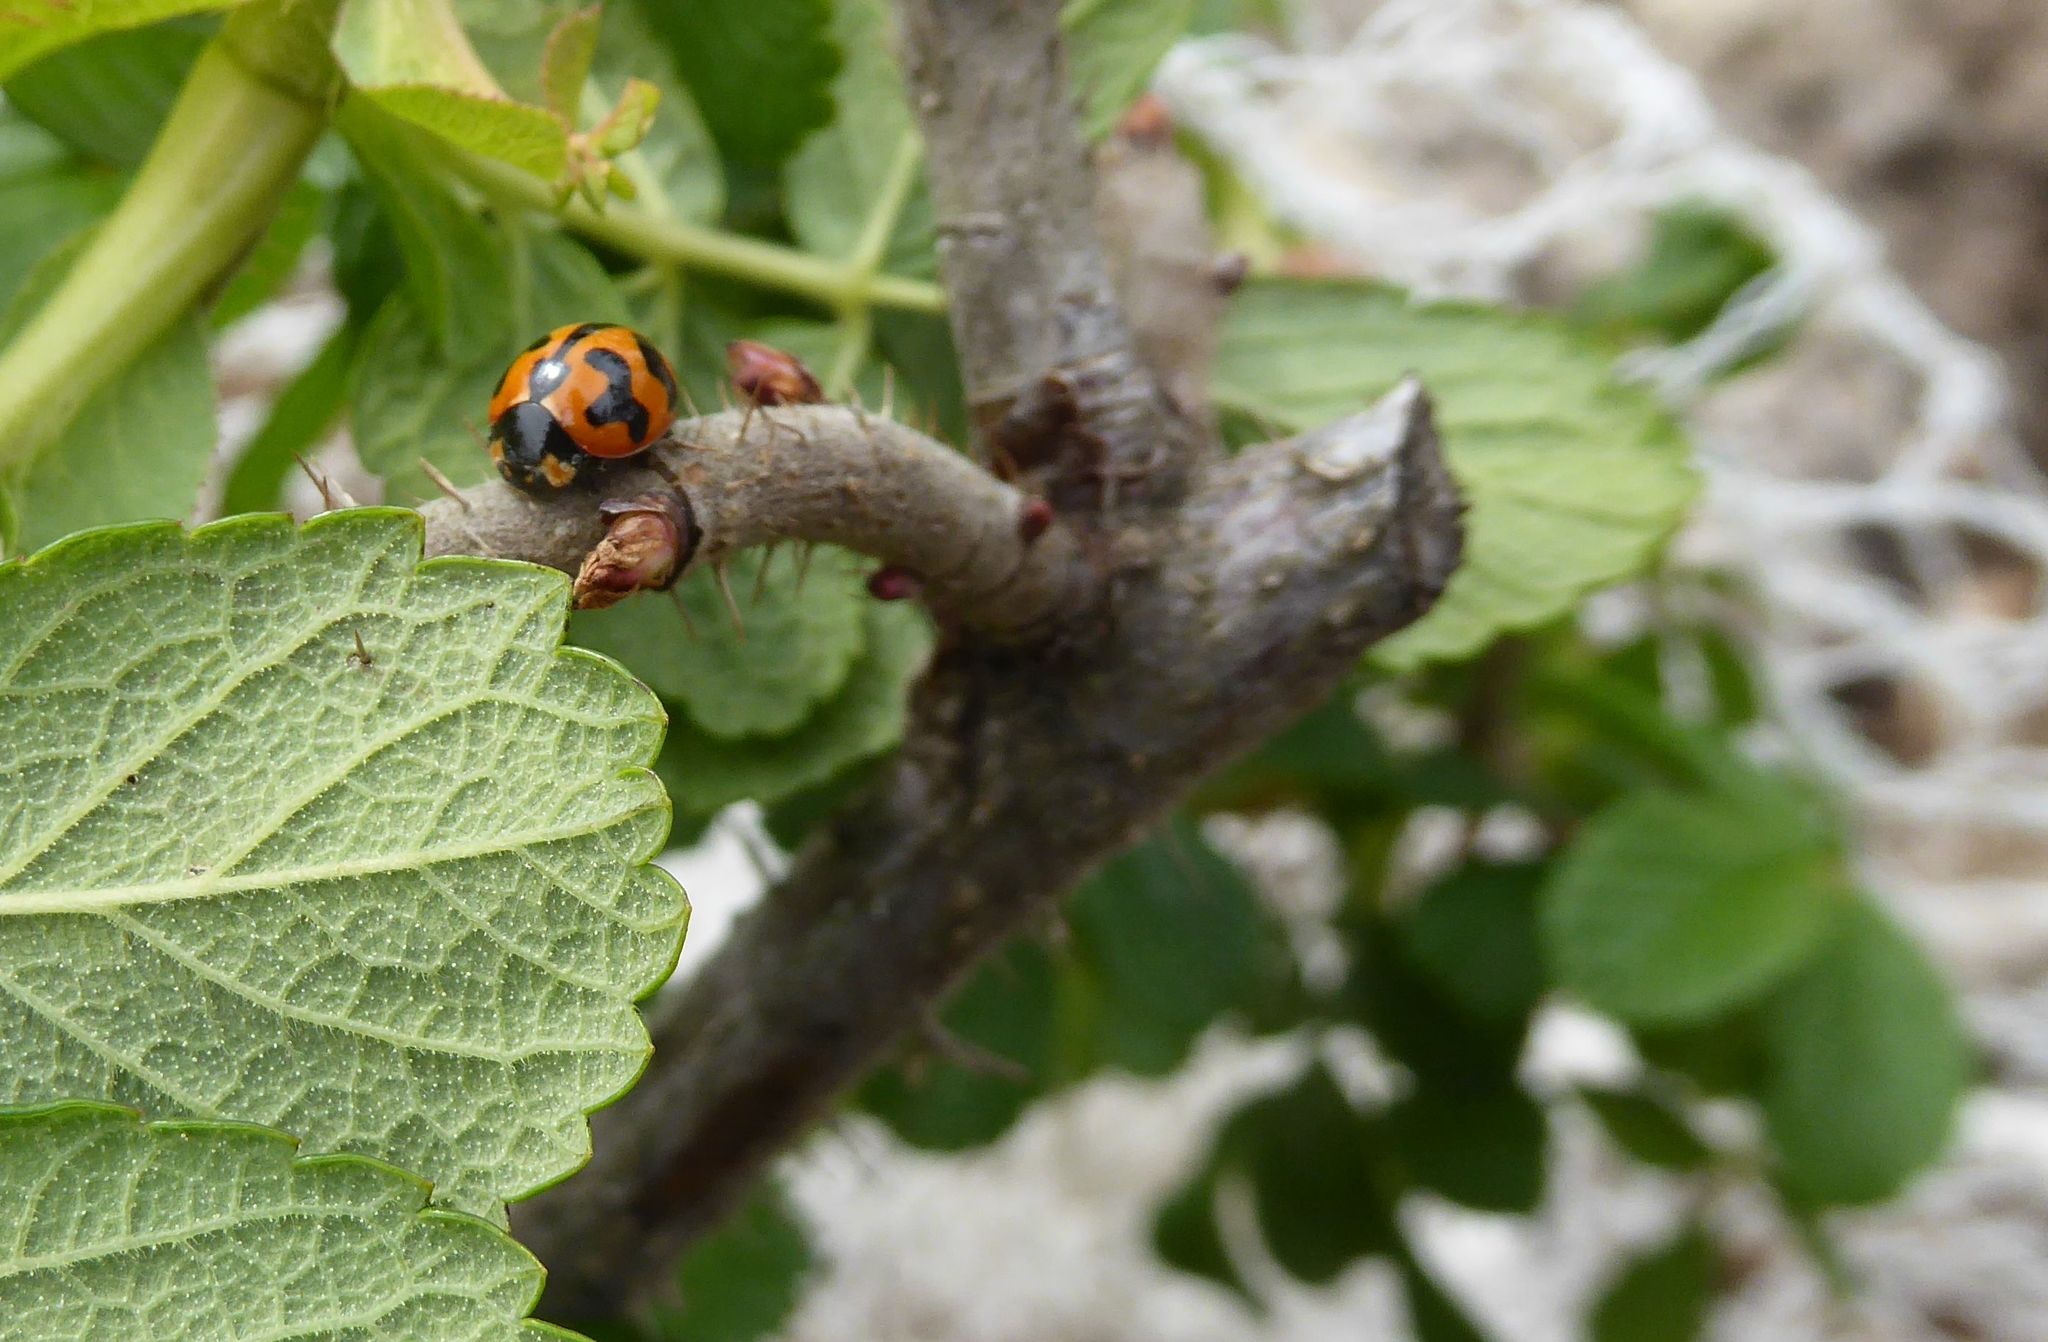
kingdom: Animalia
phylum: Arthropoda
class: Insecta
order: Coleoptera
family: Coccinellidae
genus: Coccinella
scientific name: Coccinella transversalis
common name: Transverse lady beetle
